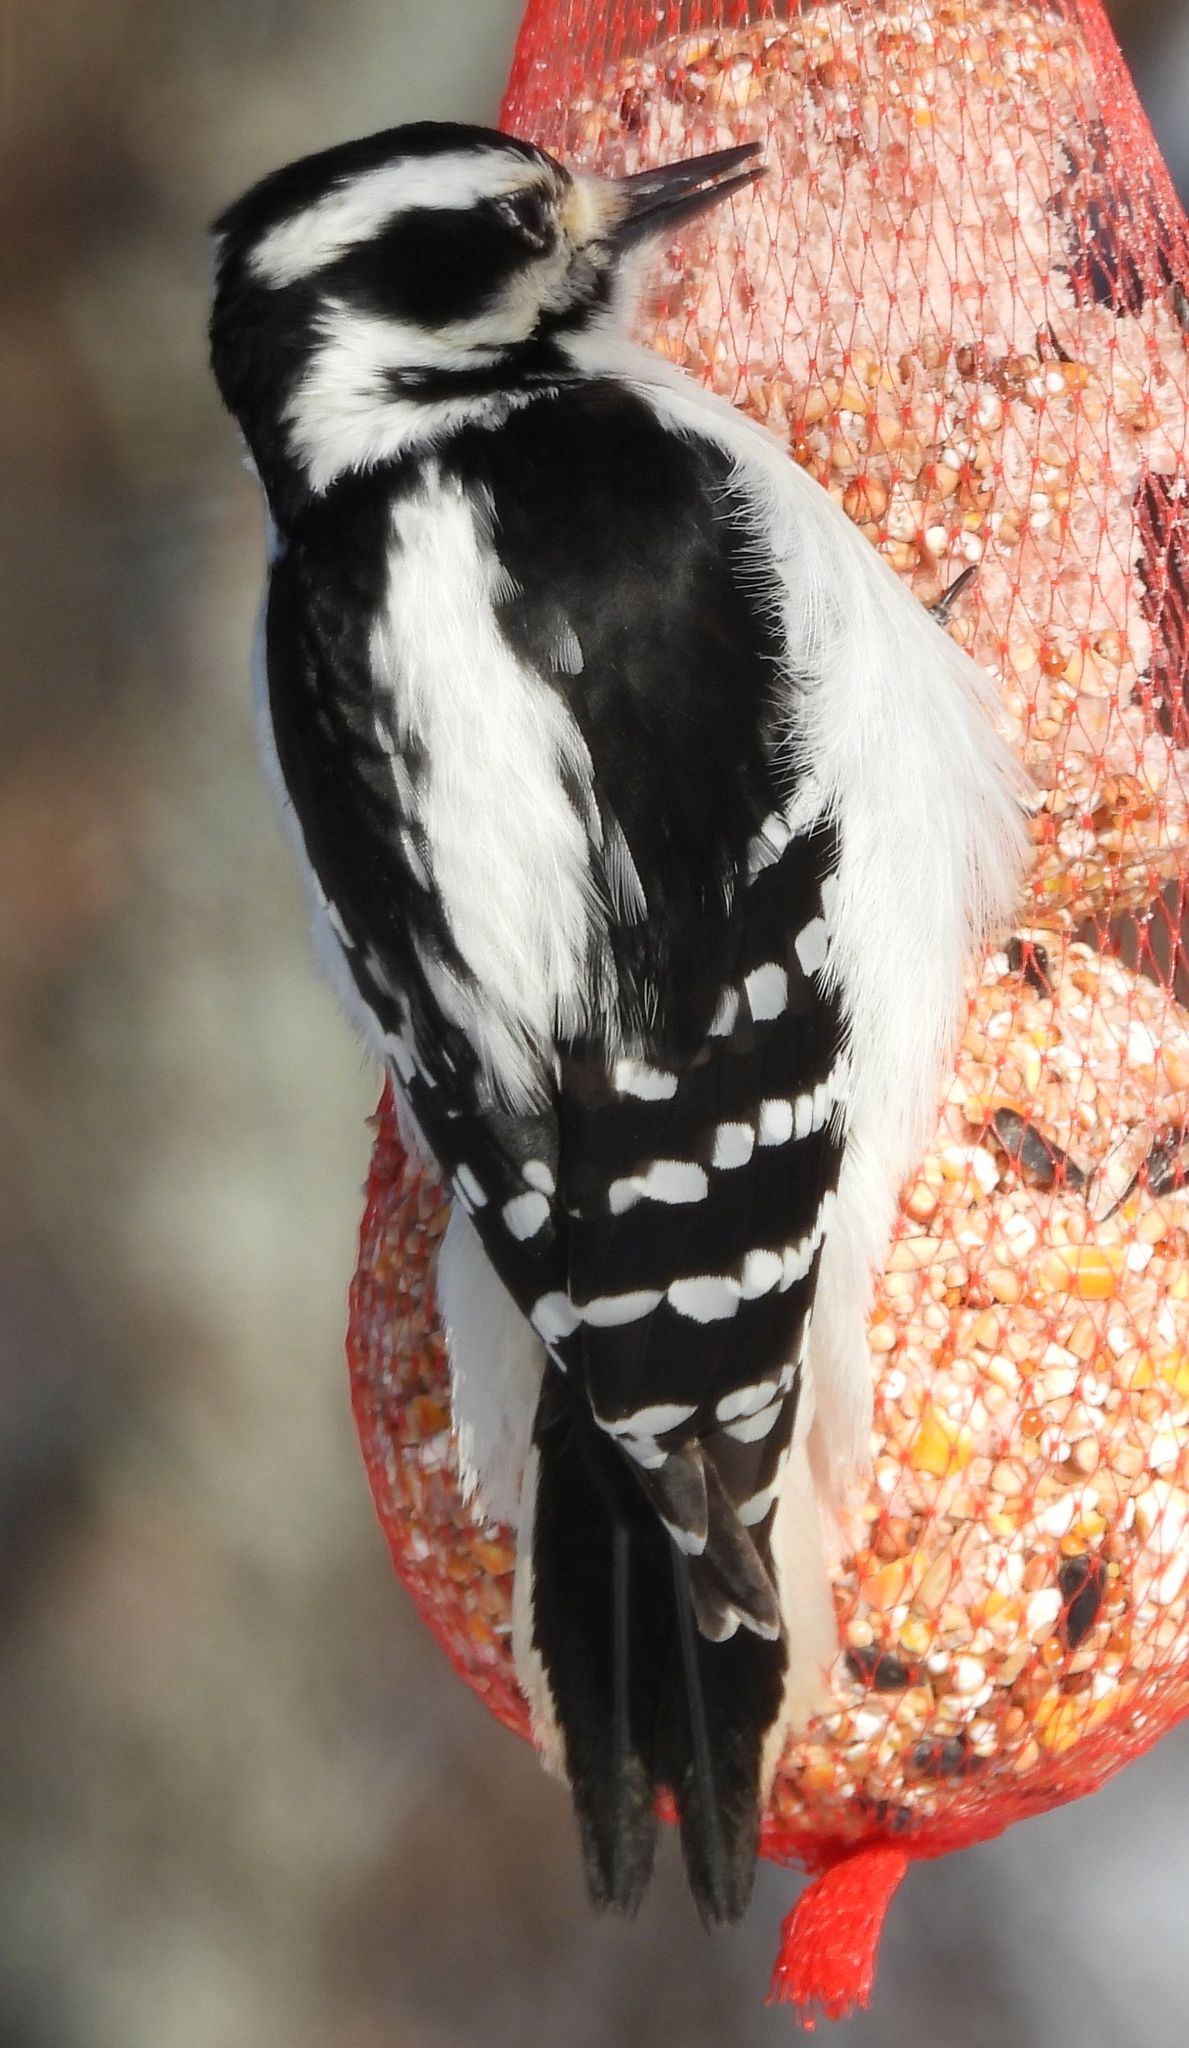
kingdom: Animalia
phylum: Chordata
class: Aves
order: Piciformes
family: Picidae
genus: Leuconotopicus
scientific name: Leuconotopicus villosus
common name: Hairy woodpecker
